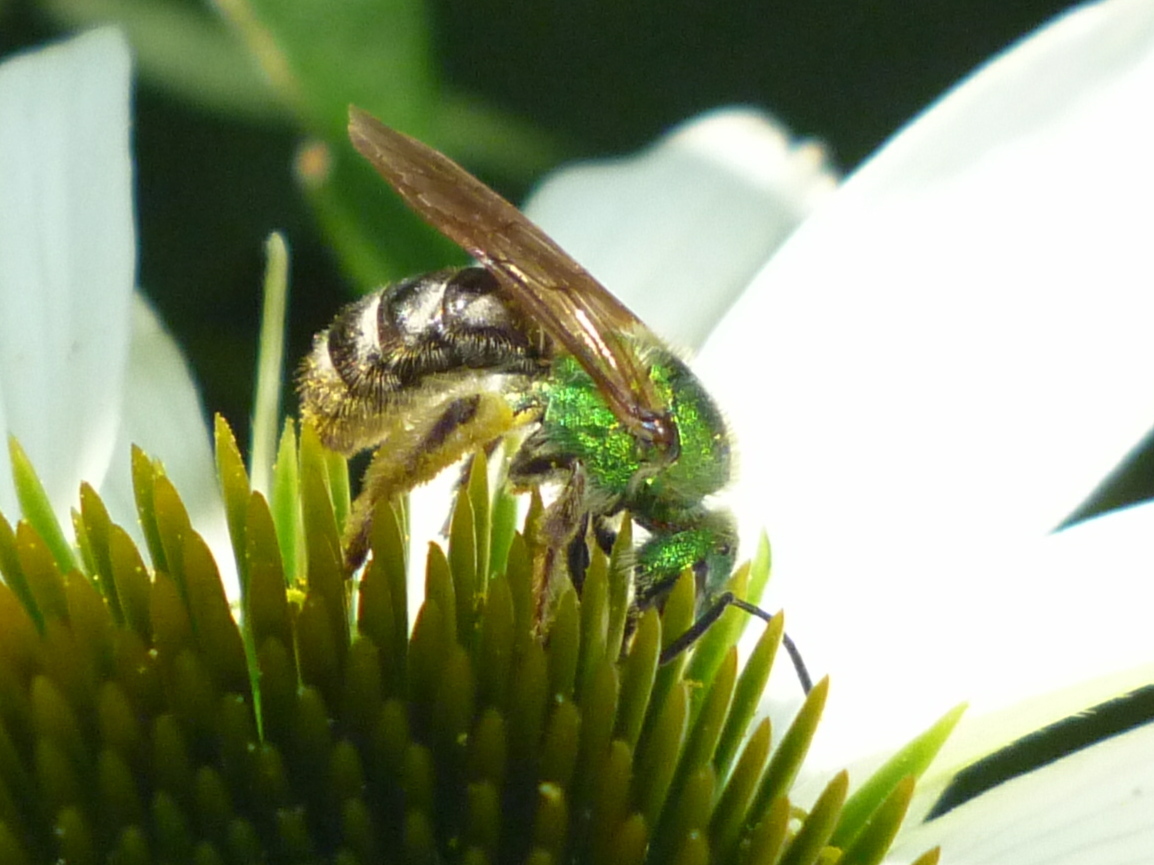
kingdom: Animalia
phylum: Arthropoda
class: Insecta
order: Hymenoptera
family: Halictidae
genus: Agapostemon
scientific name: Agapostemon virescens
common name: Bicolored striped sweat bee
